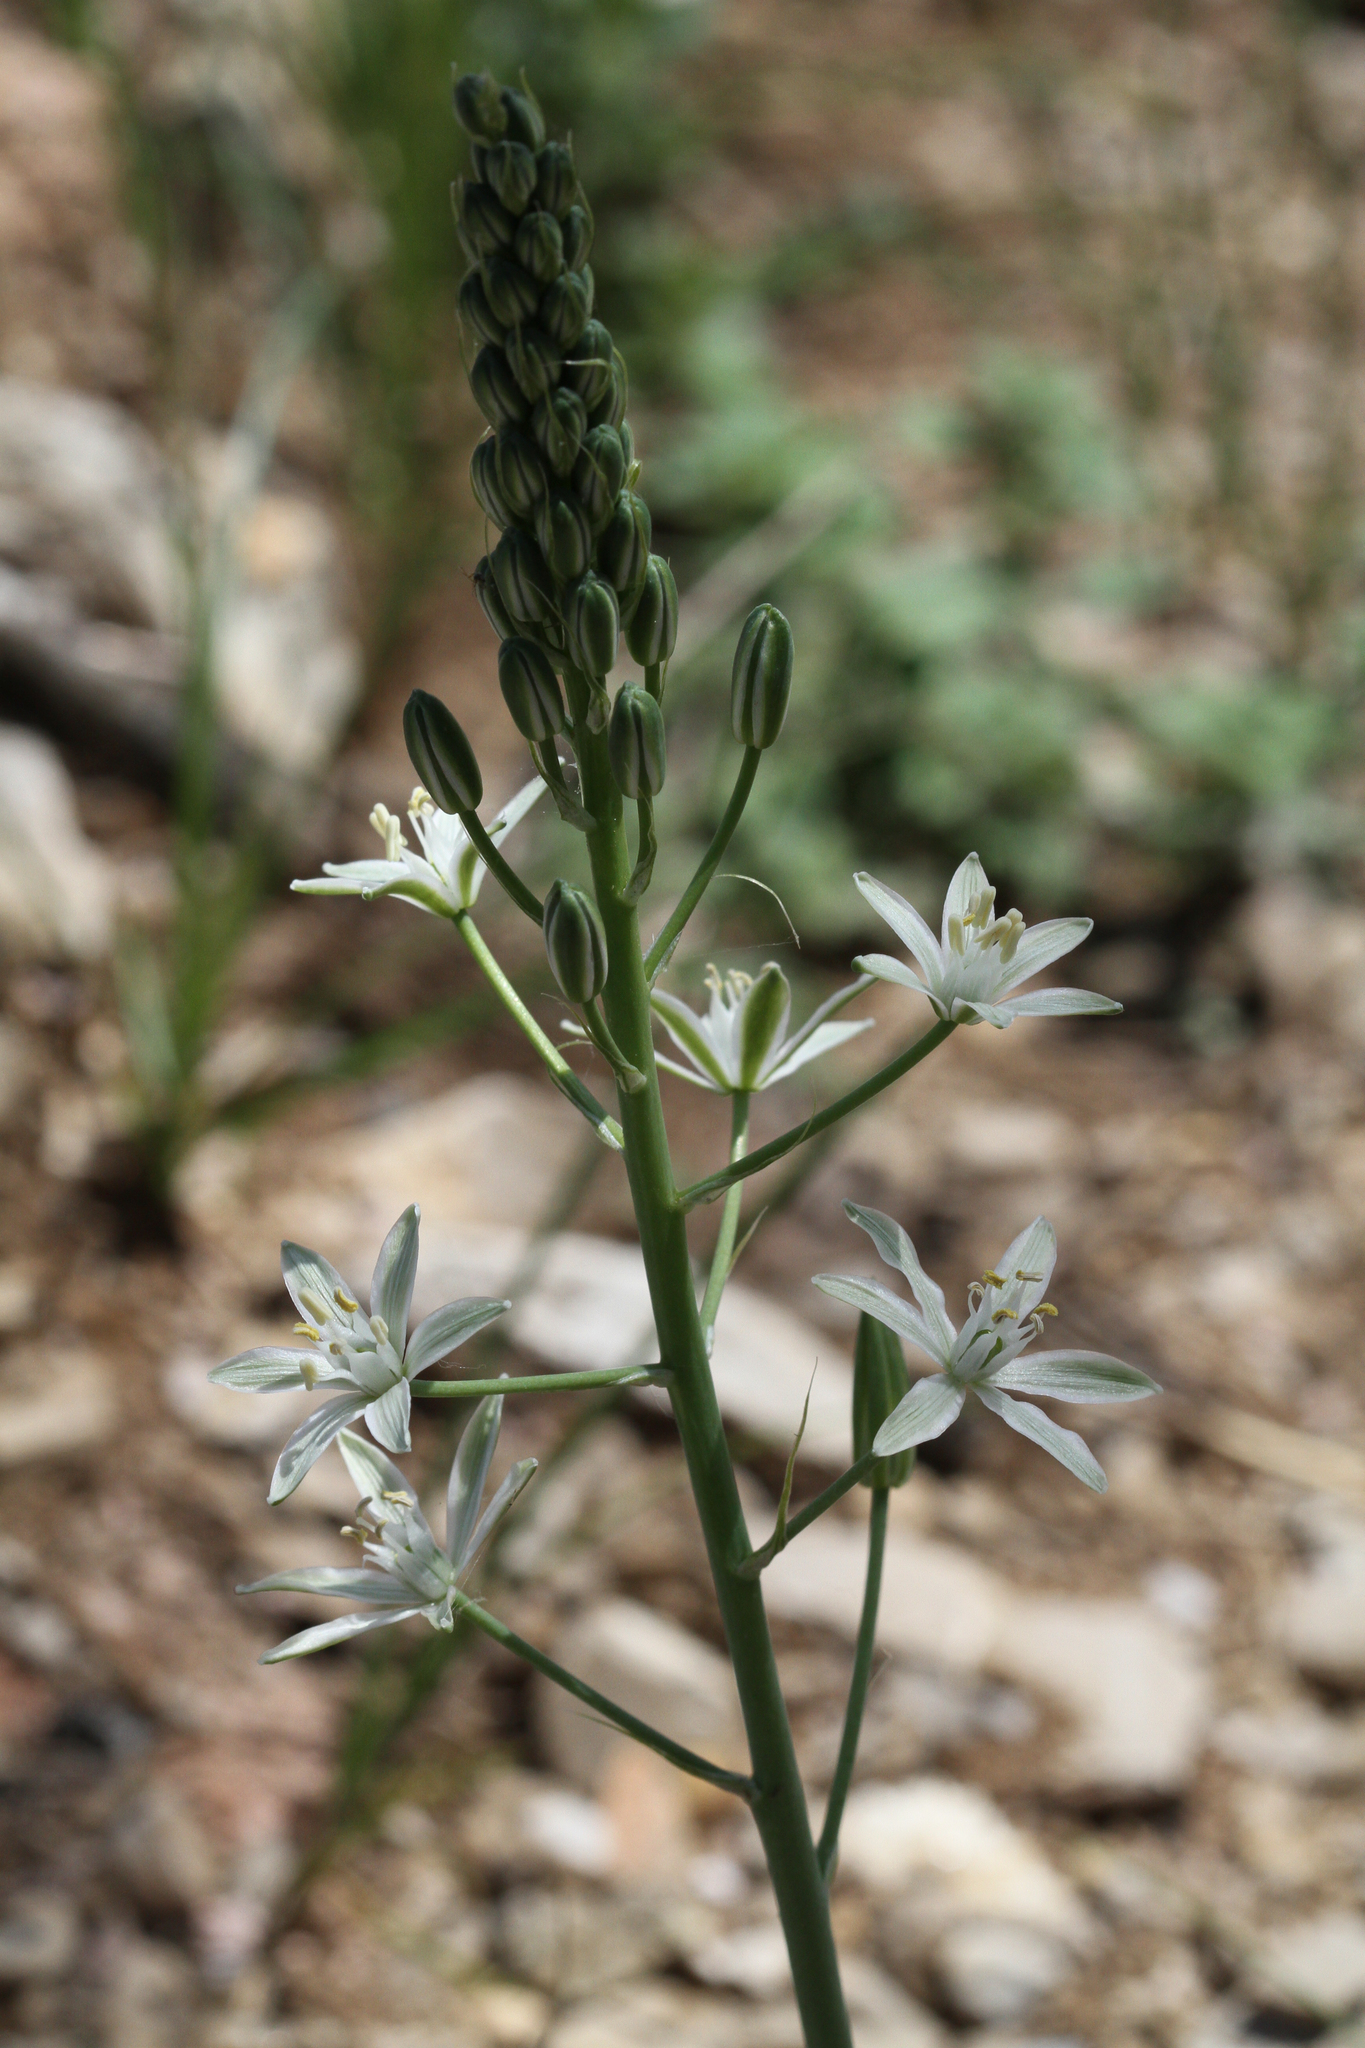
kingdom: Plantae
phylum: Tracheophyta
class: Liliopsida
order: Asparagales
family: Asparagaceae
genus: Ornithogalum
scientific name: Ornithogalum narbonense
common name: Bath-asparagus
